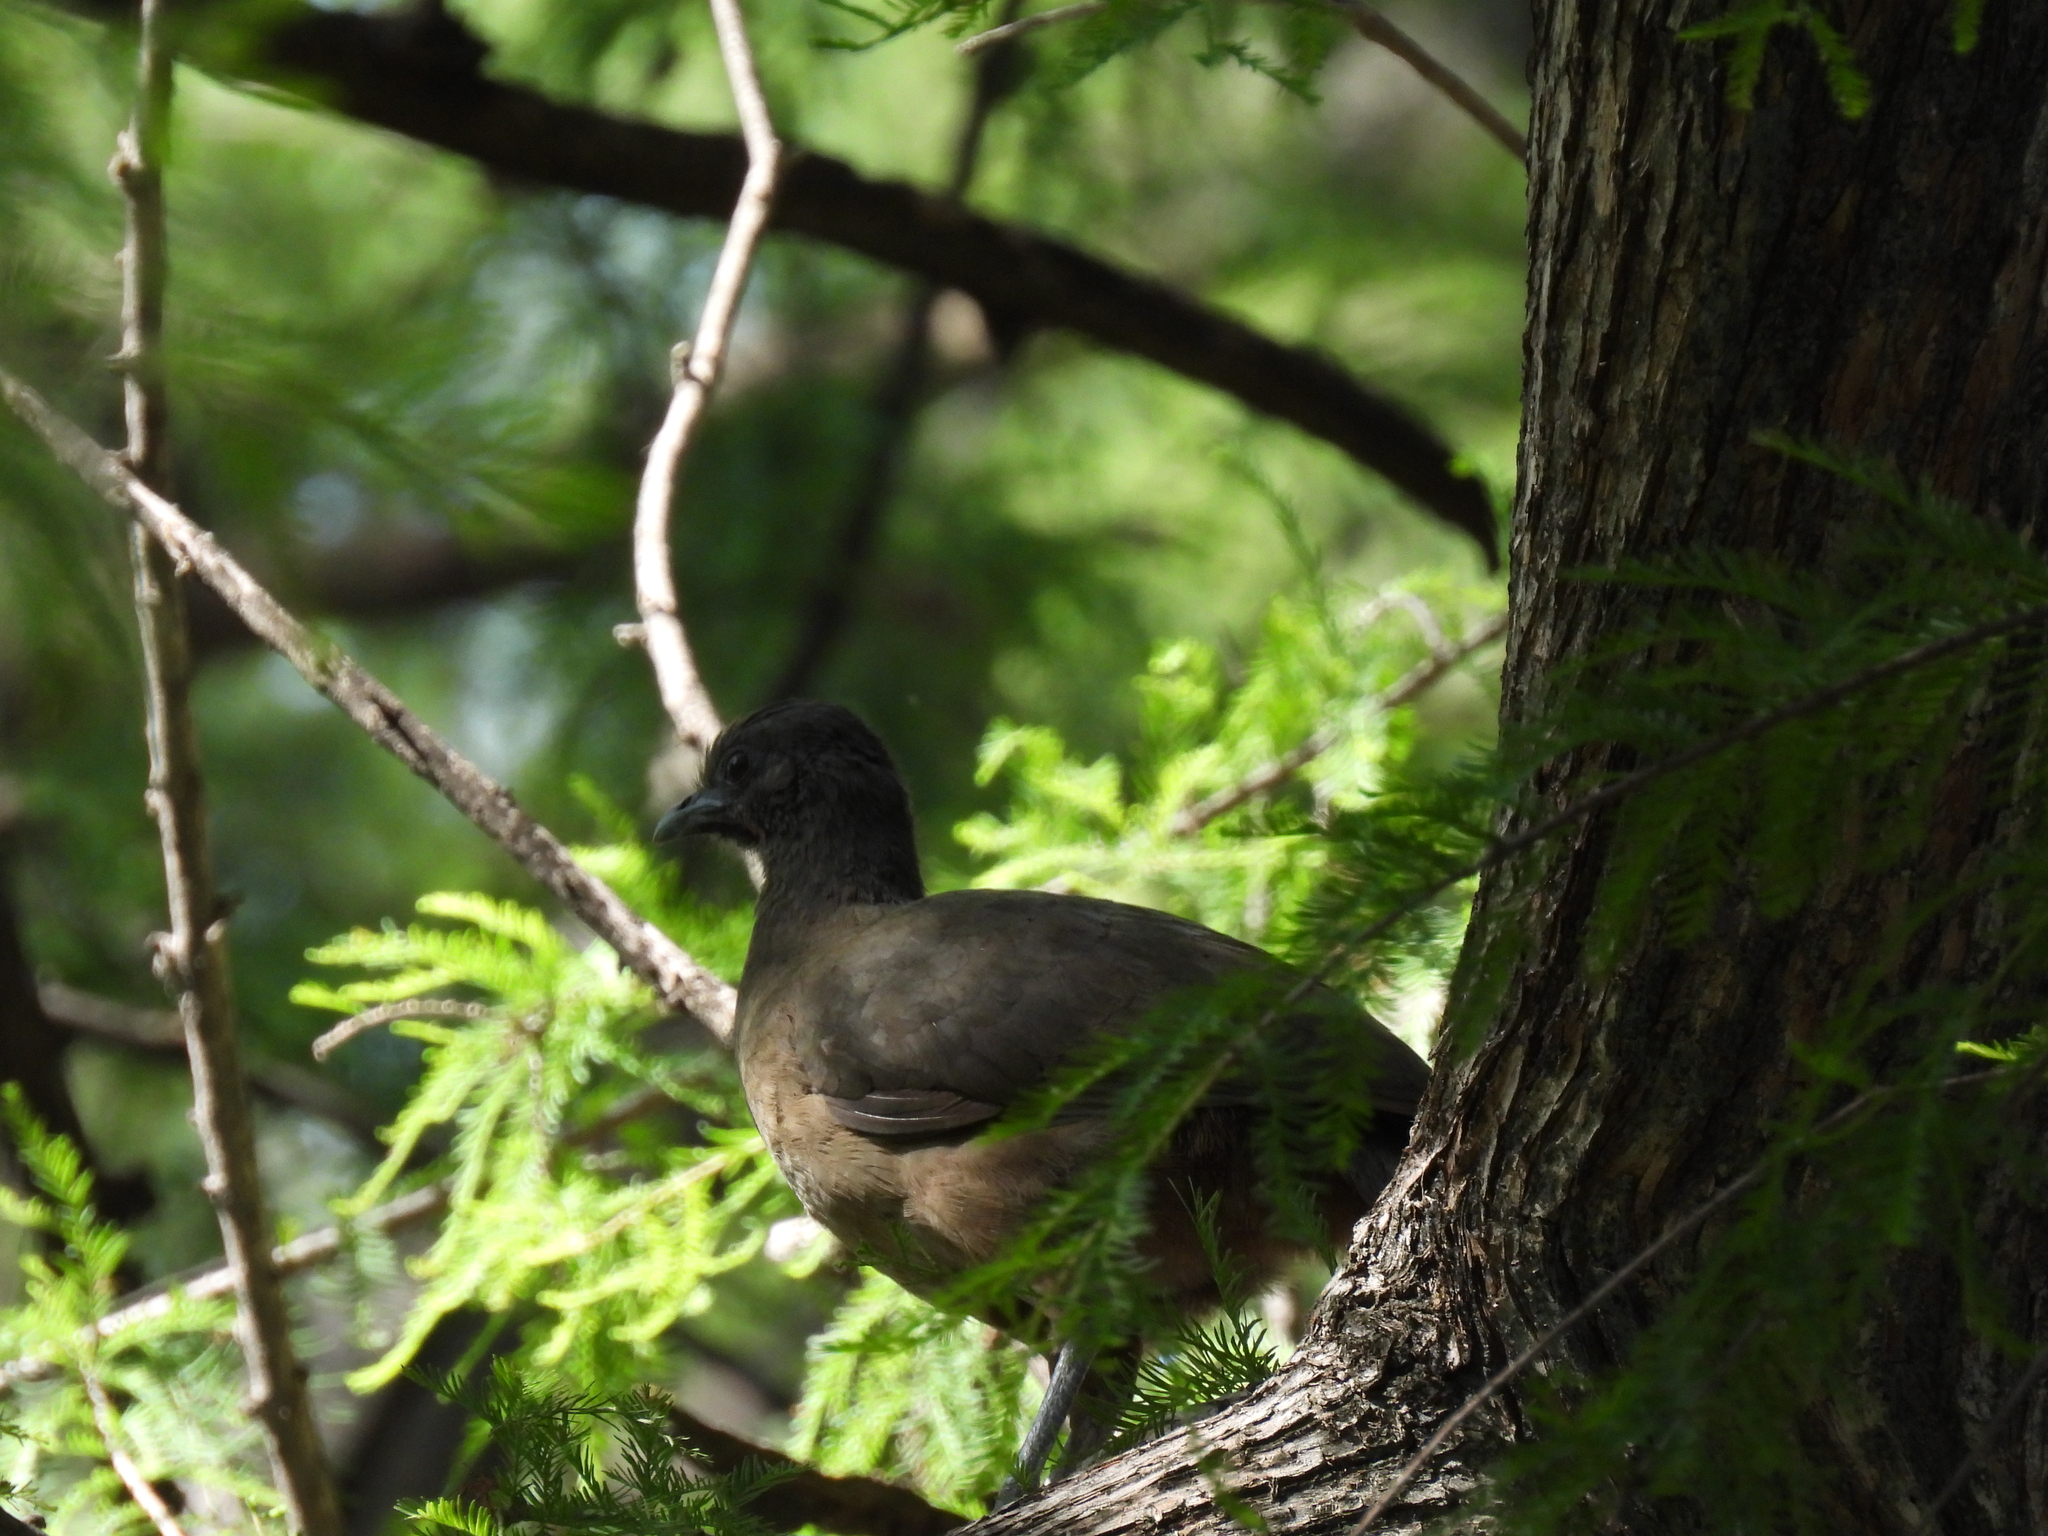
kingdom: Animalia
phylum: Chordata
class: Aves
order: Galliformes
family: Cracidae
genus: Ortalis
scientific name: Ortalis vetula
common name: Plain chachalaca
